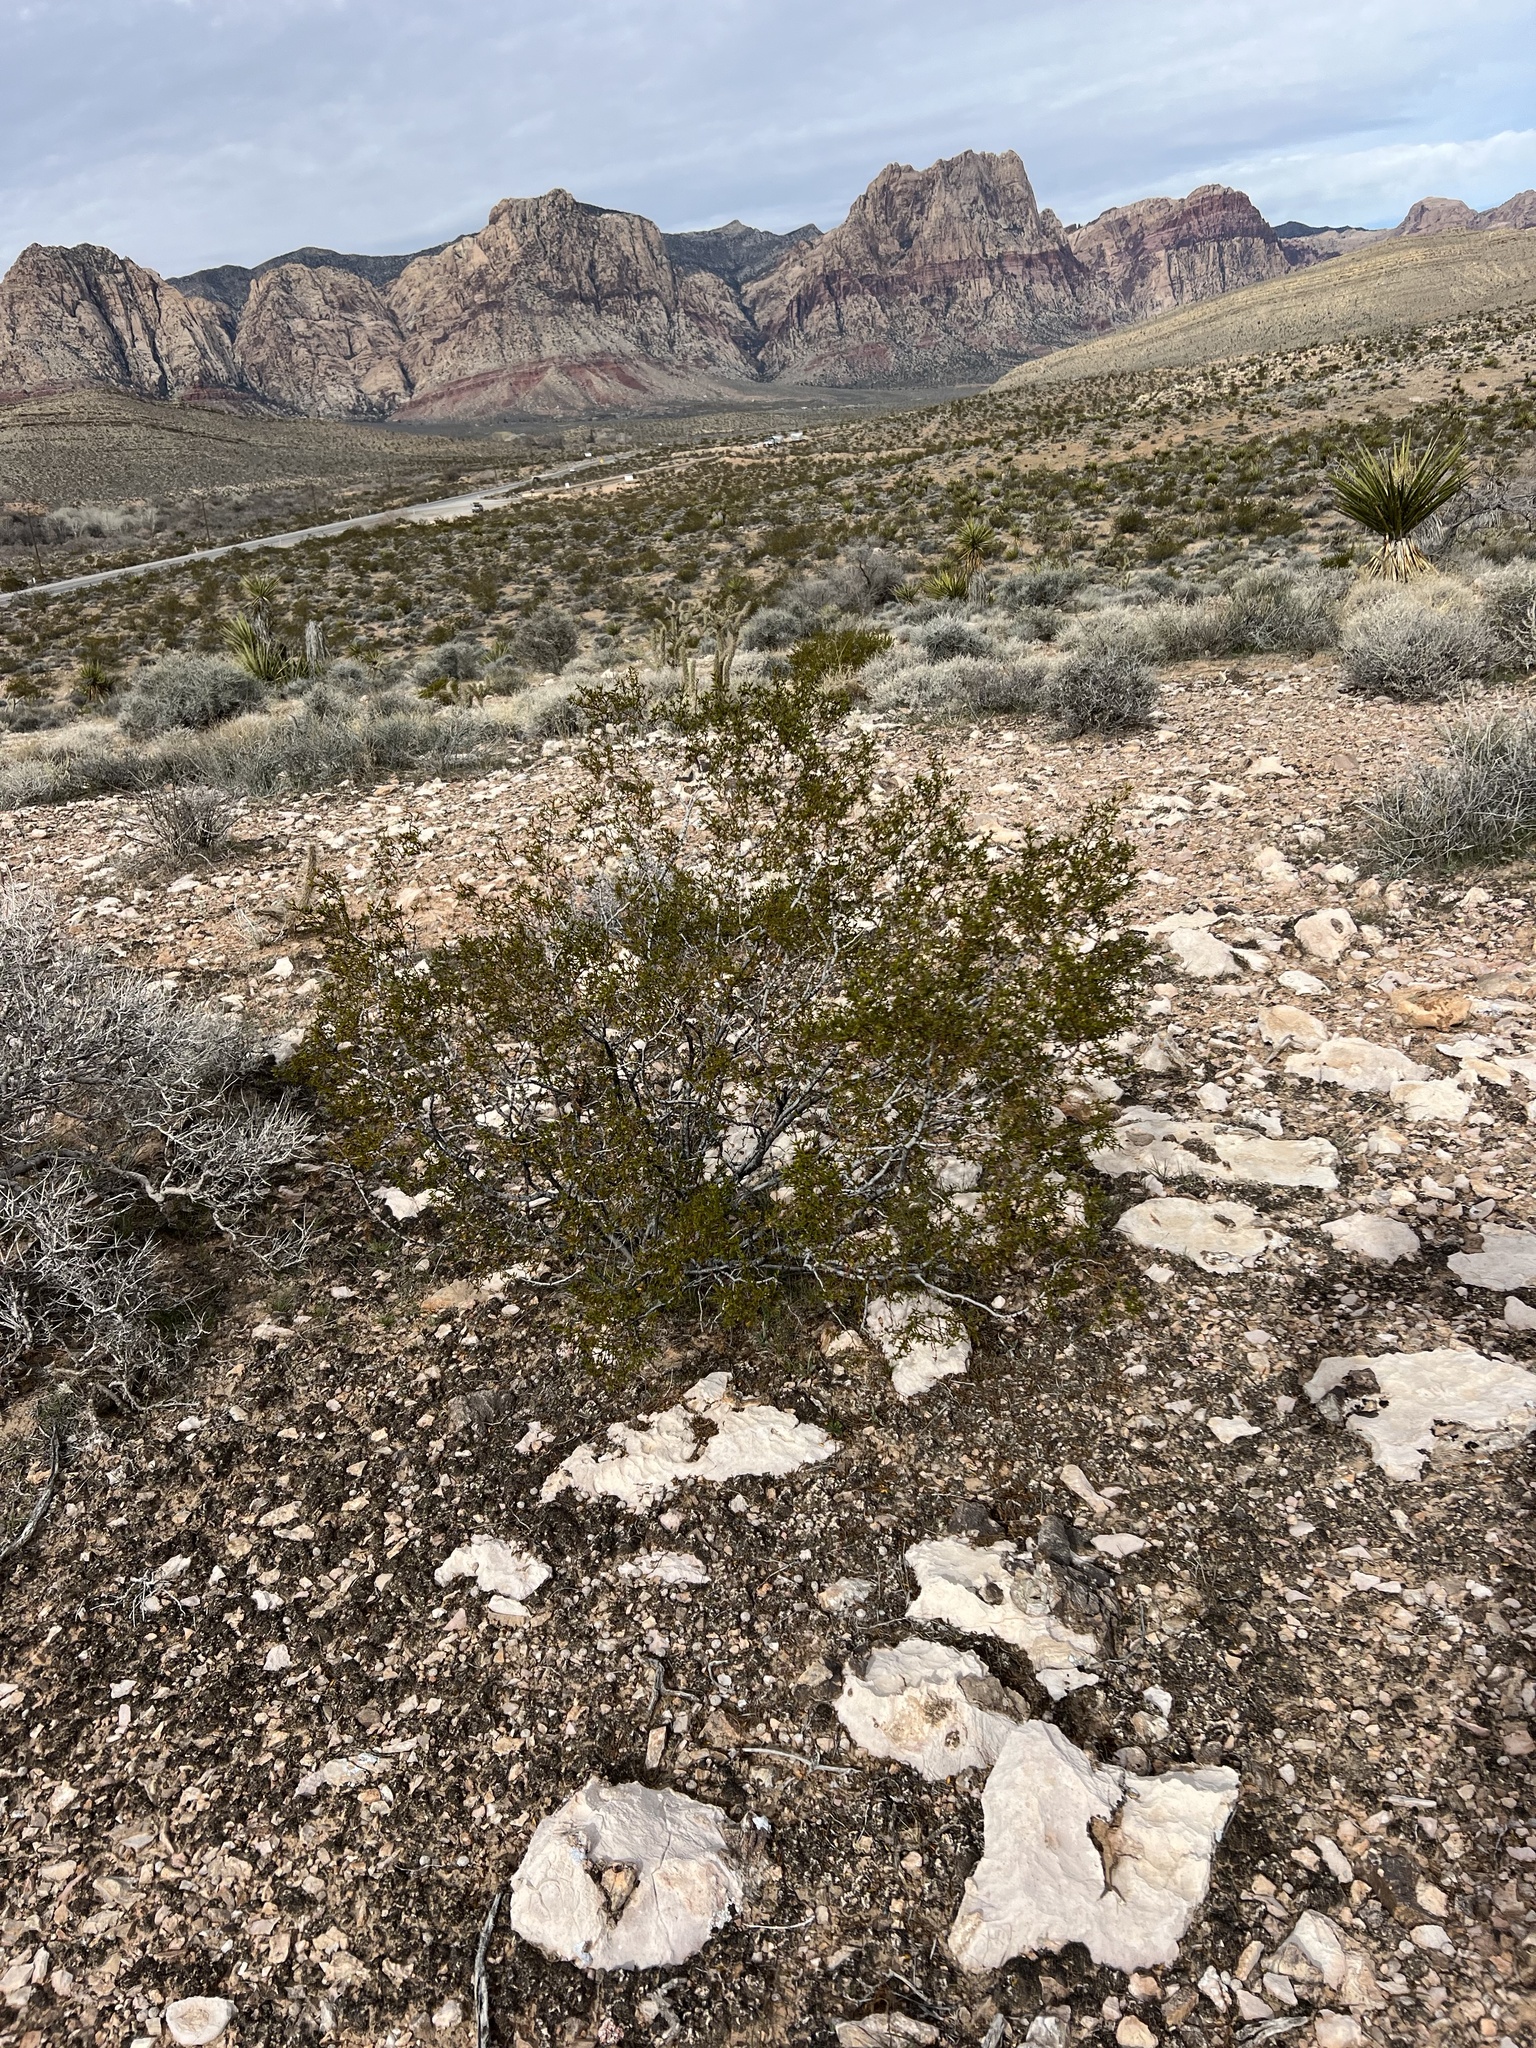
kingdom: Plantae
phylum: Tracheophyta
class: Magnoliopsida
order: Zygophyllales
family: Zygophyllaceae
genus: Larrea
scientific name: Larrea tridentata
